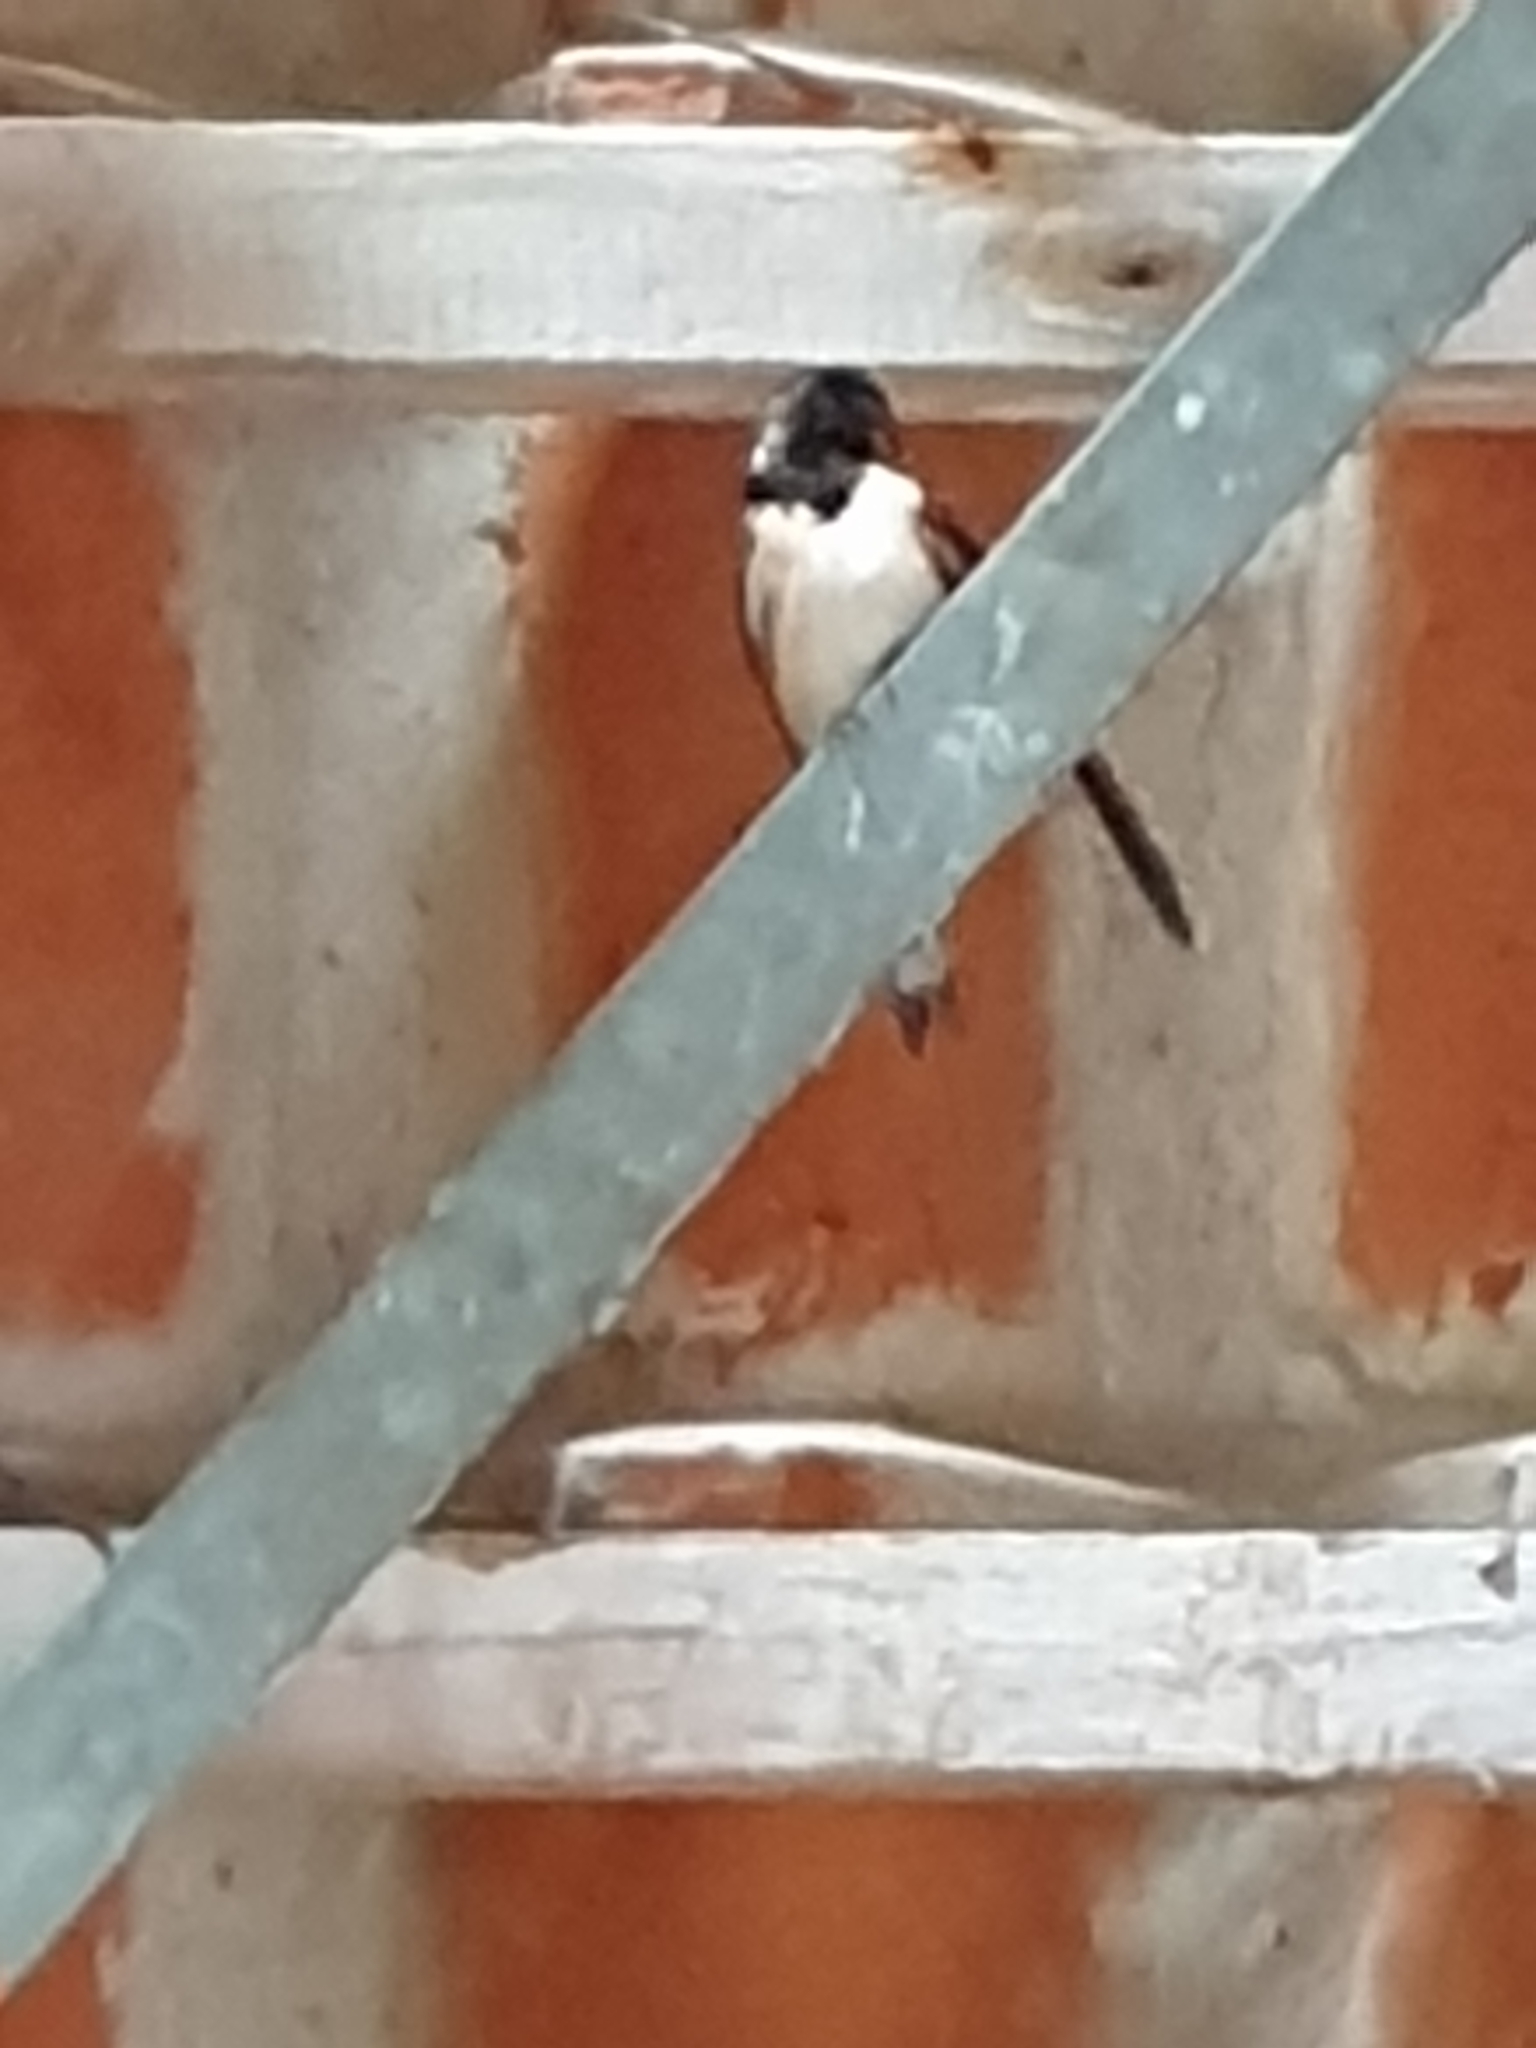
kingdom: Animalia
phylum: Chordata
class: Aves
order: Passeriformes
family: Hirundinidae
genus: Hirundo
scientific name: Hirundo rustica
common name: Barn swallow
